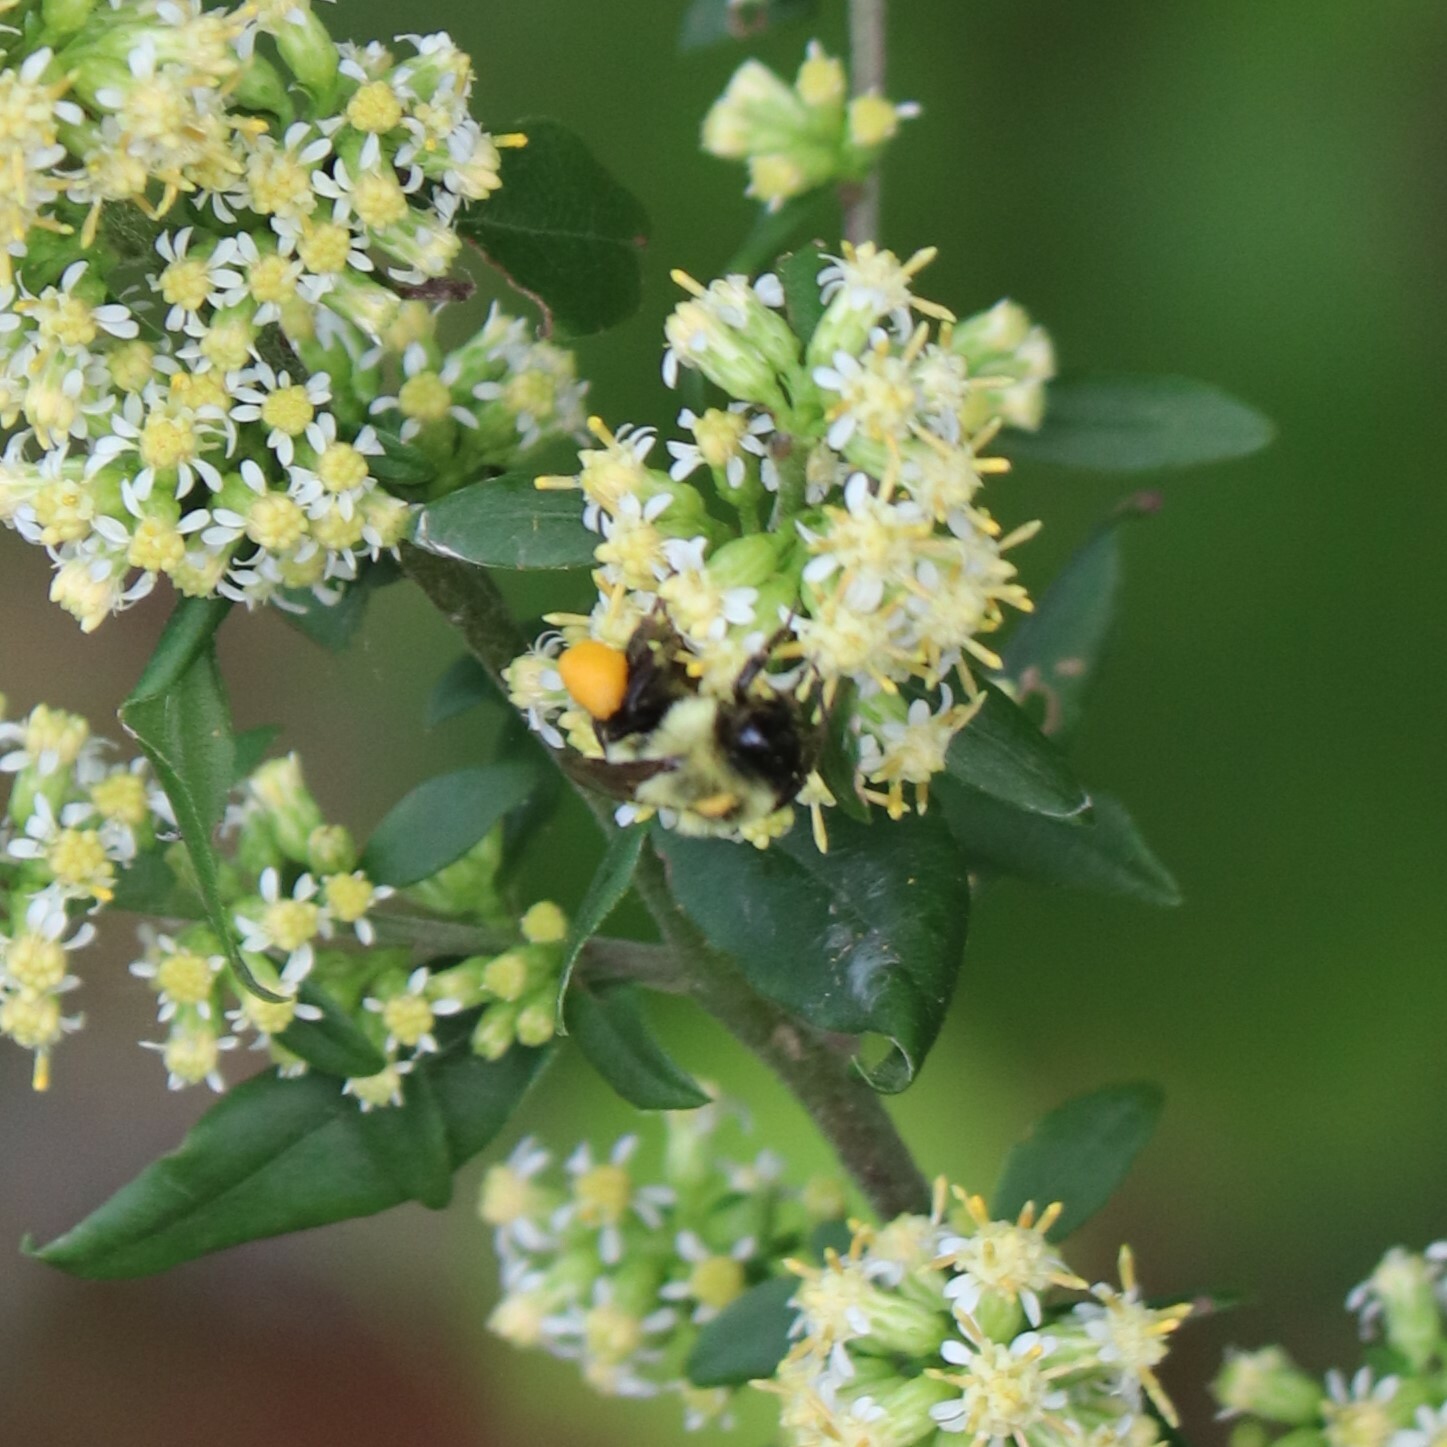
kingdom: Animalia
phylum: Arthropoda
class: Insecta
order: Hymenoptera
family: Apidae
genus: Bombus
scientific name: Bombus impatiens
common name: Common eastern bumble bee
